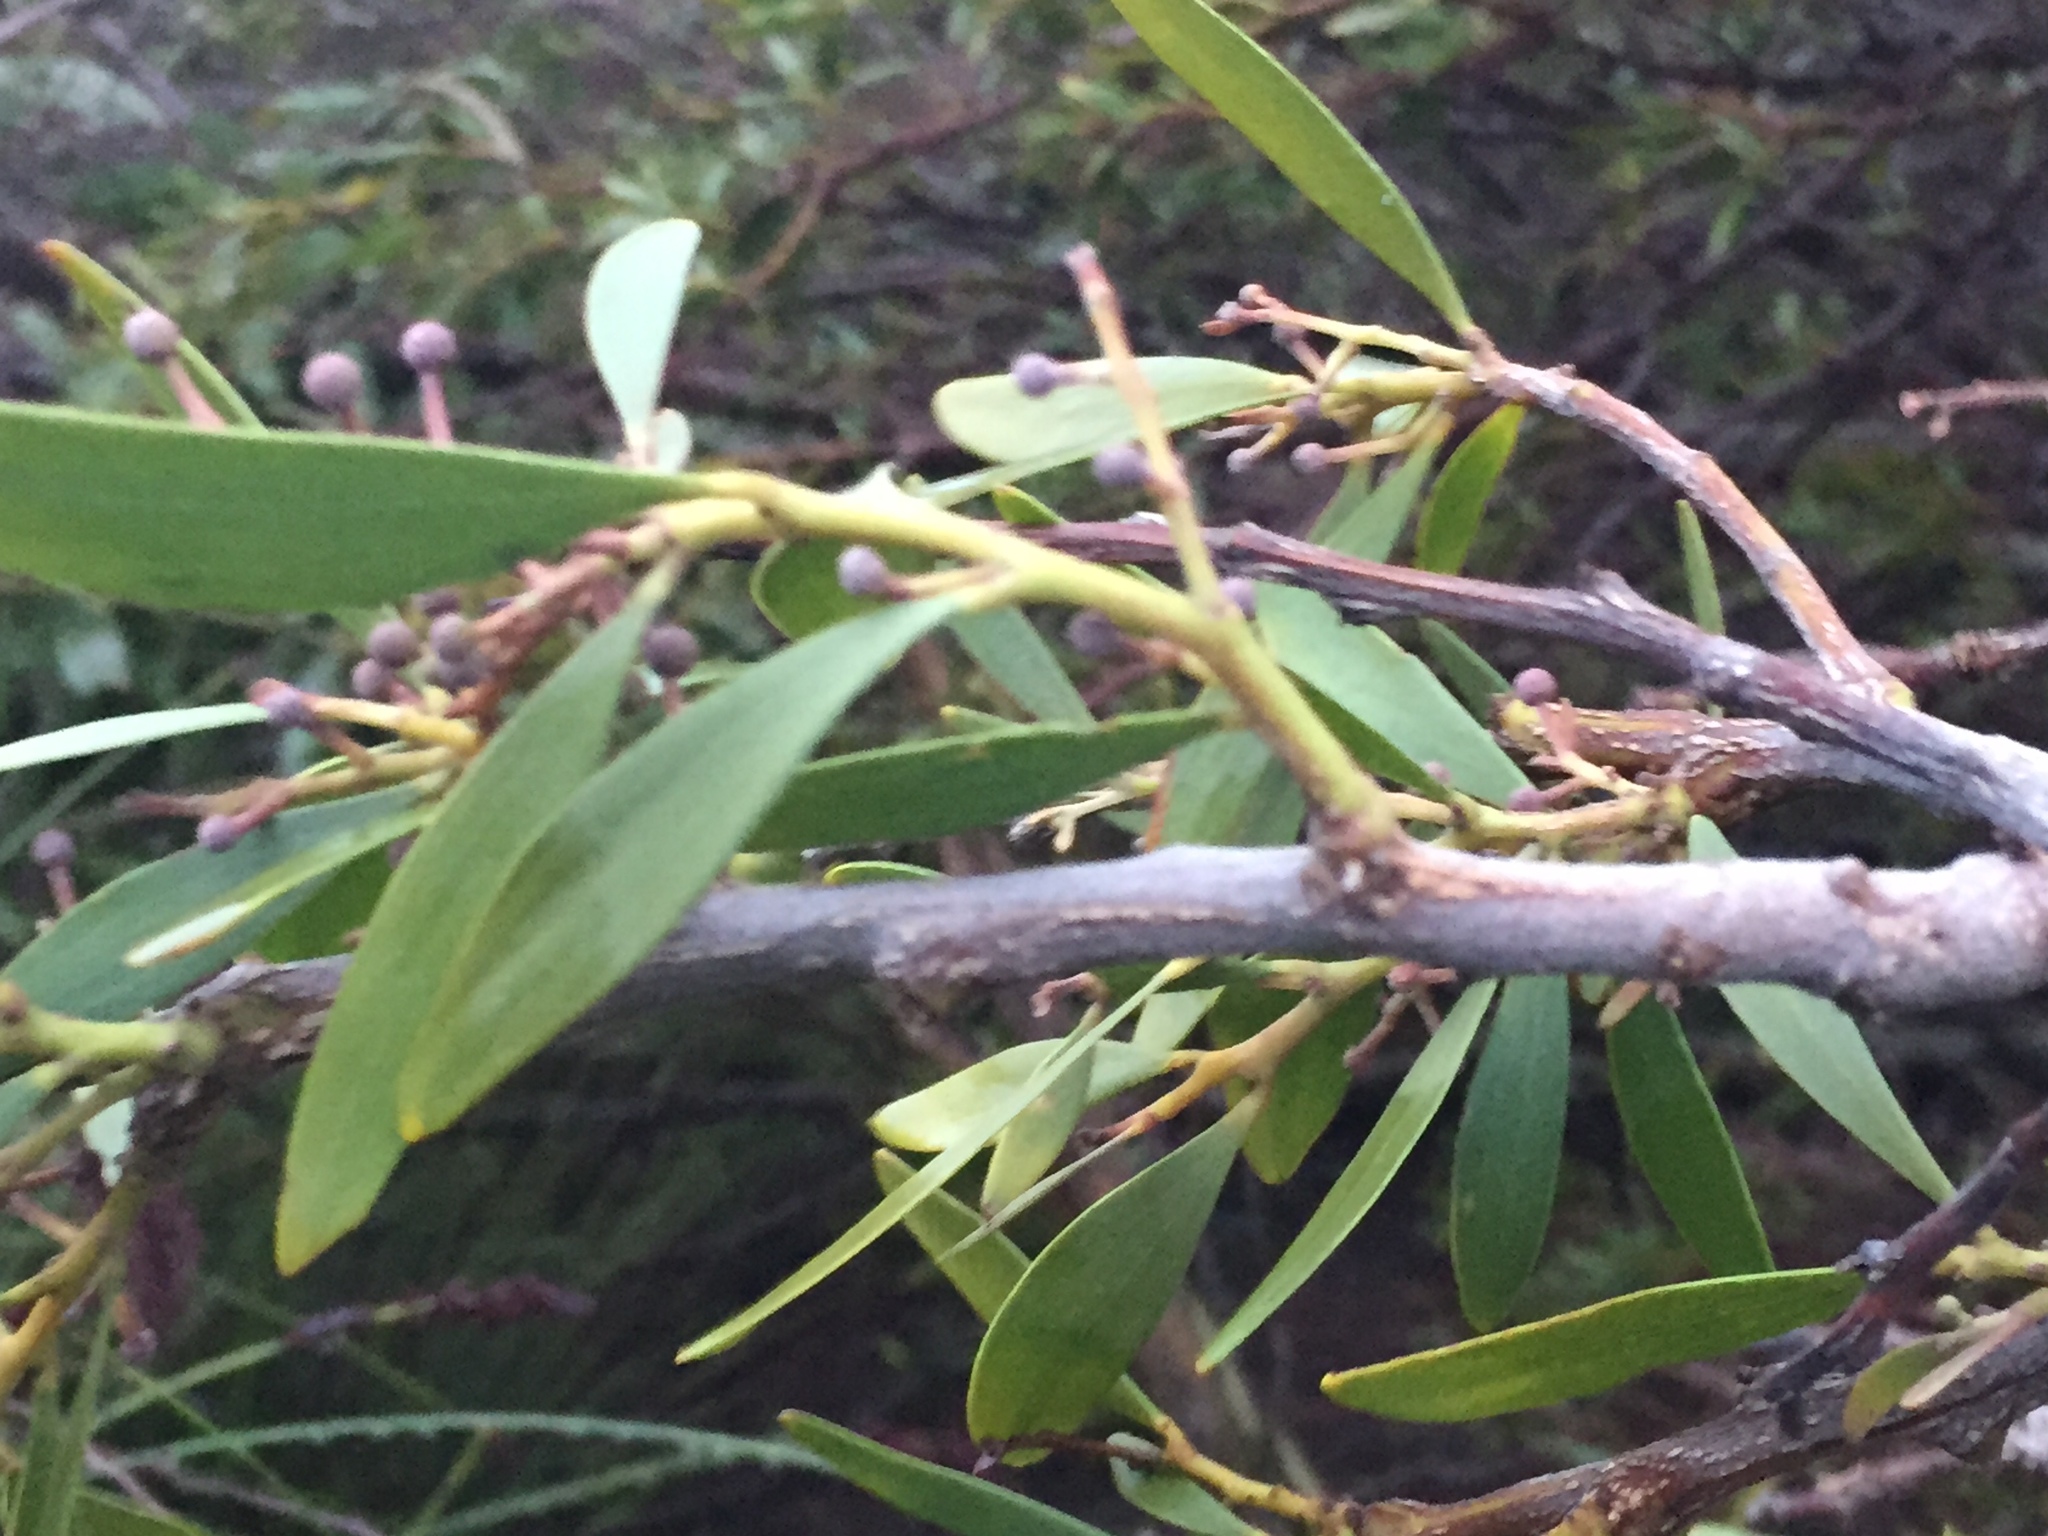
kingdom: Plantae
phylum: Tracheophyta
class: Magnoliopsida
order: Fabales
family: Fabaceae
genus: Acacia
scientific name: Acacia melanoxylon
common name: Blackwood
